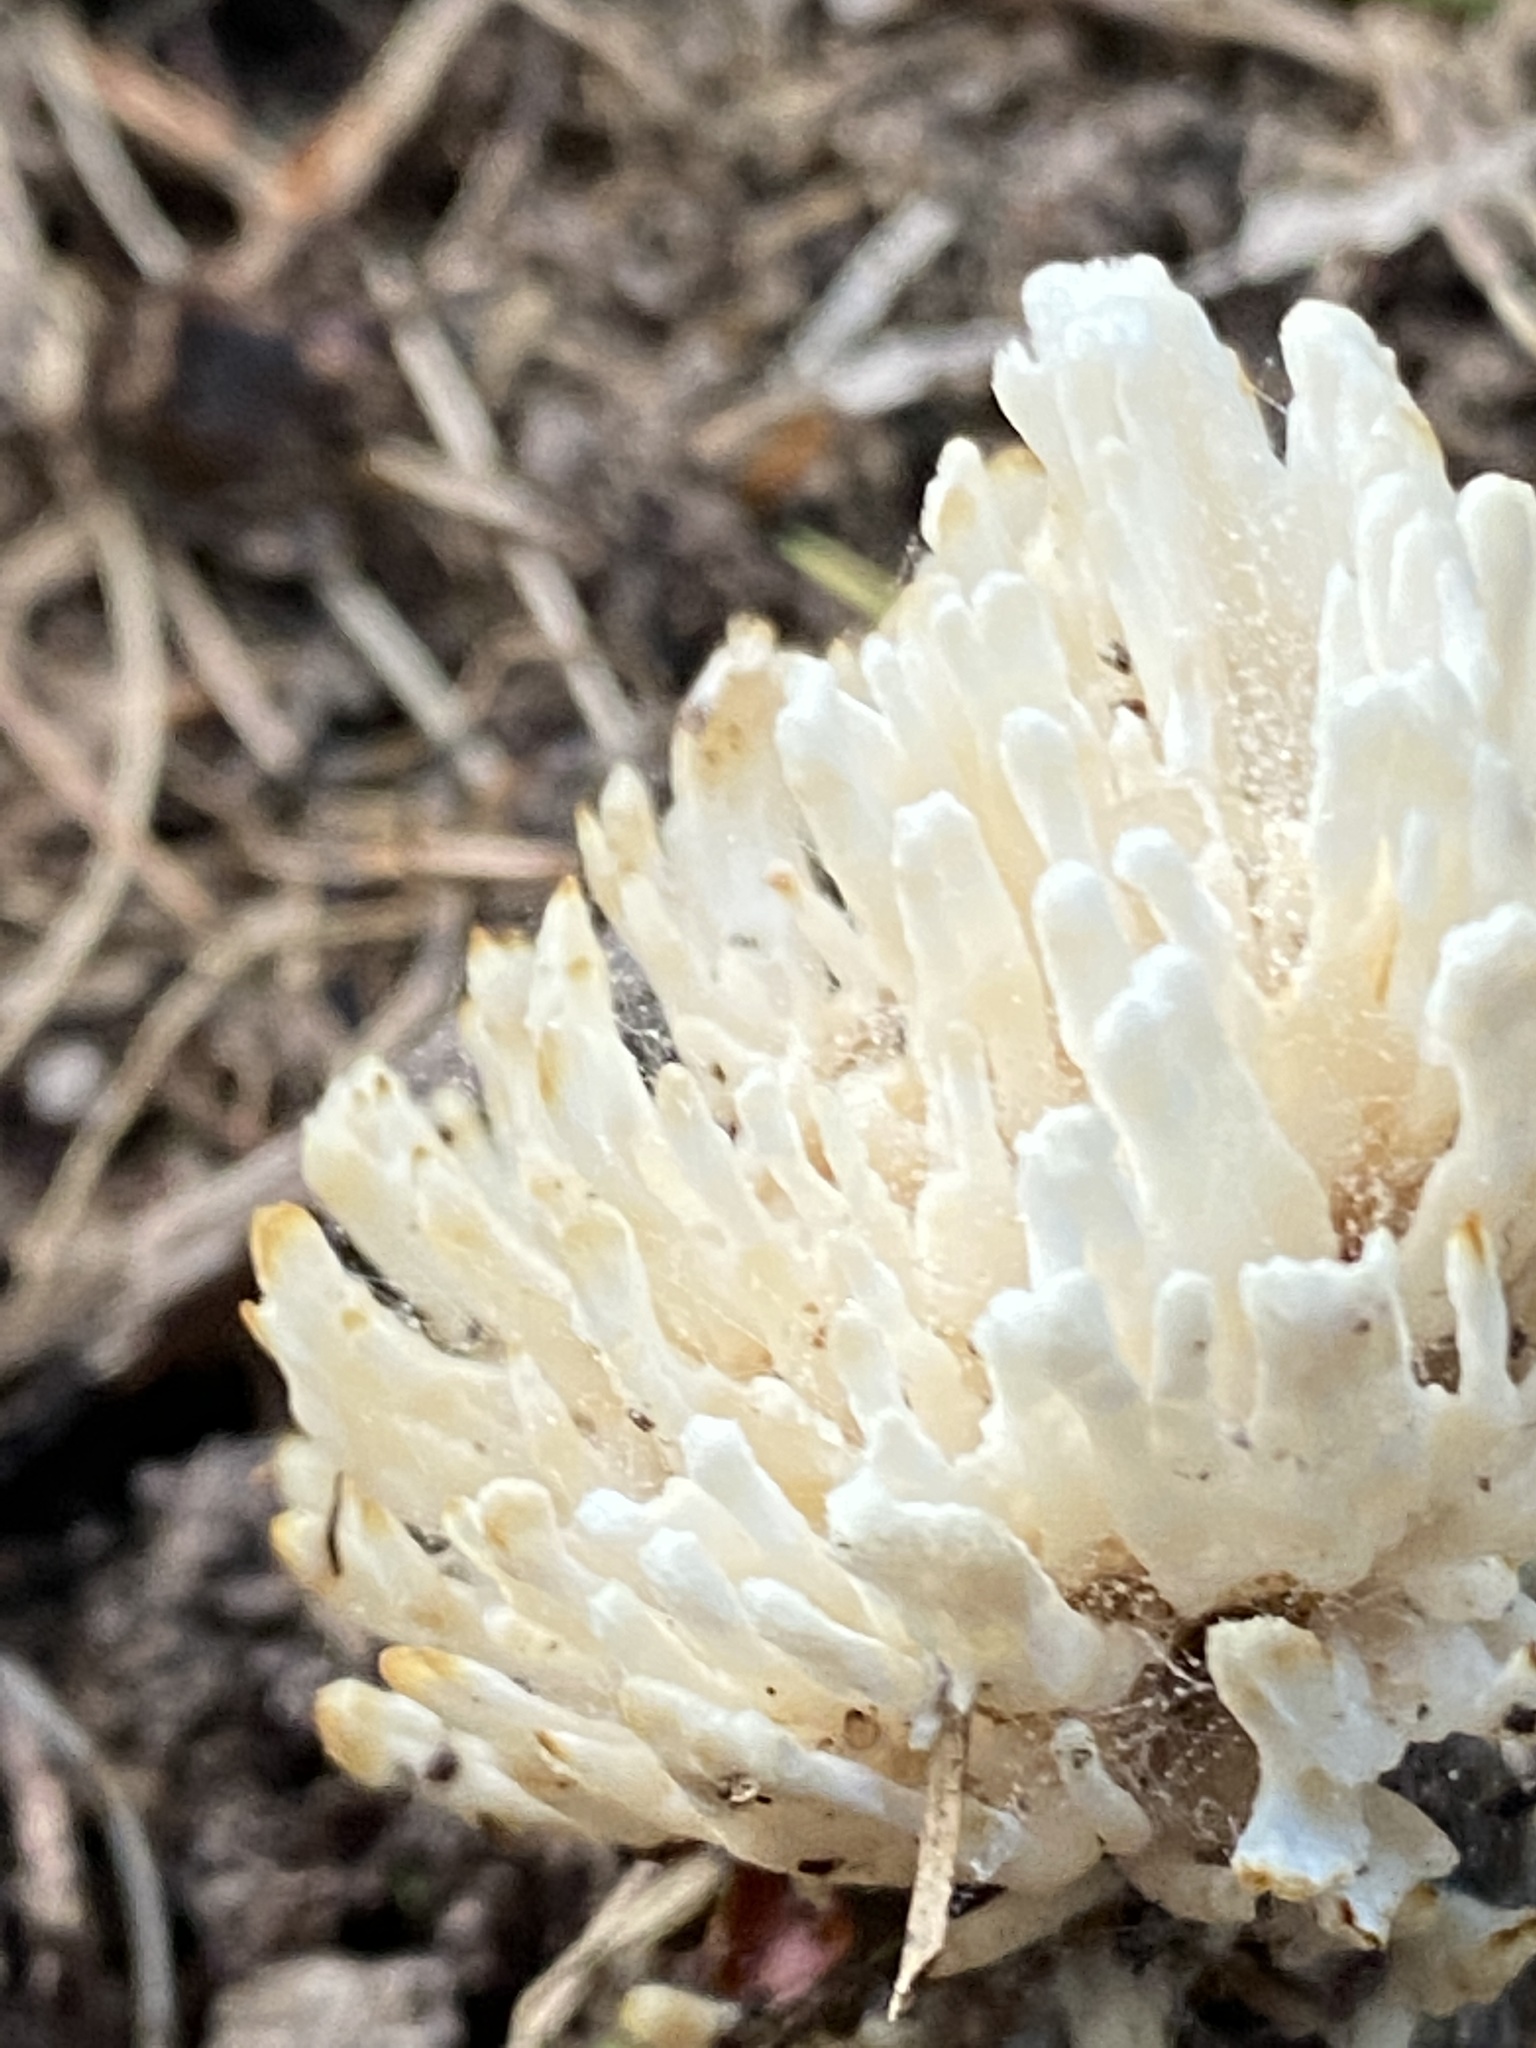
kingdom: Fungi
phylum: Basidiomycota
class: Agaricomycetes
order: Sebacinales
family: Sebacinaceae
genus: Sebacina
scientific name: Sebacina schweinitzii
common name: Jellied false coral fungus
